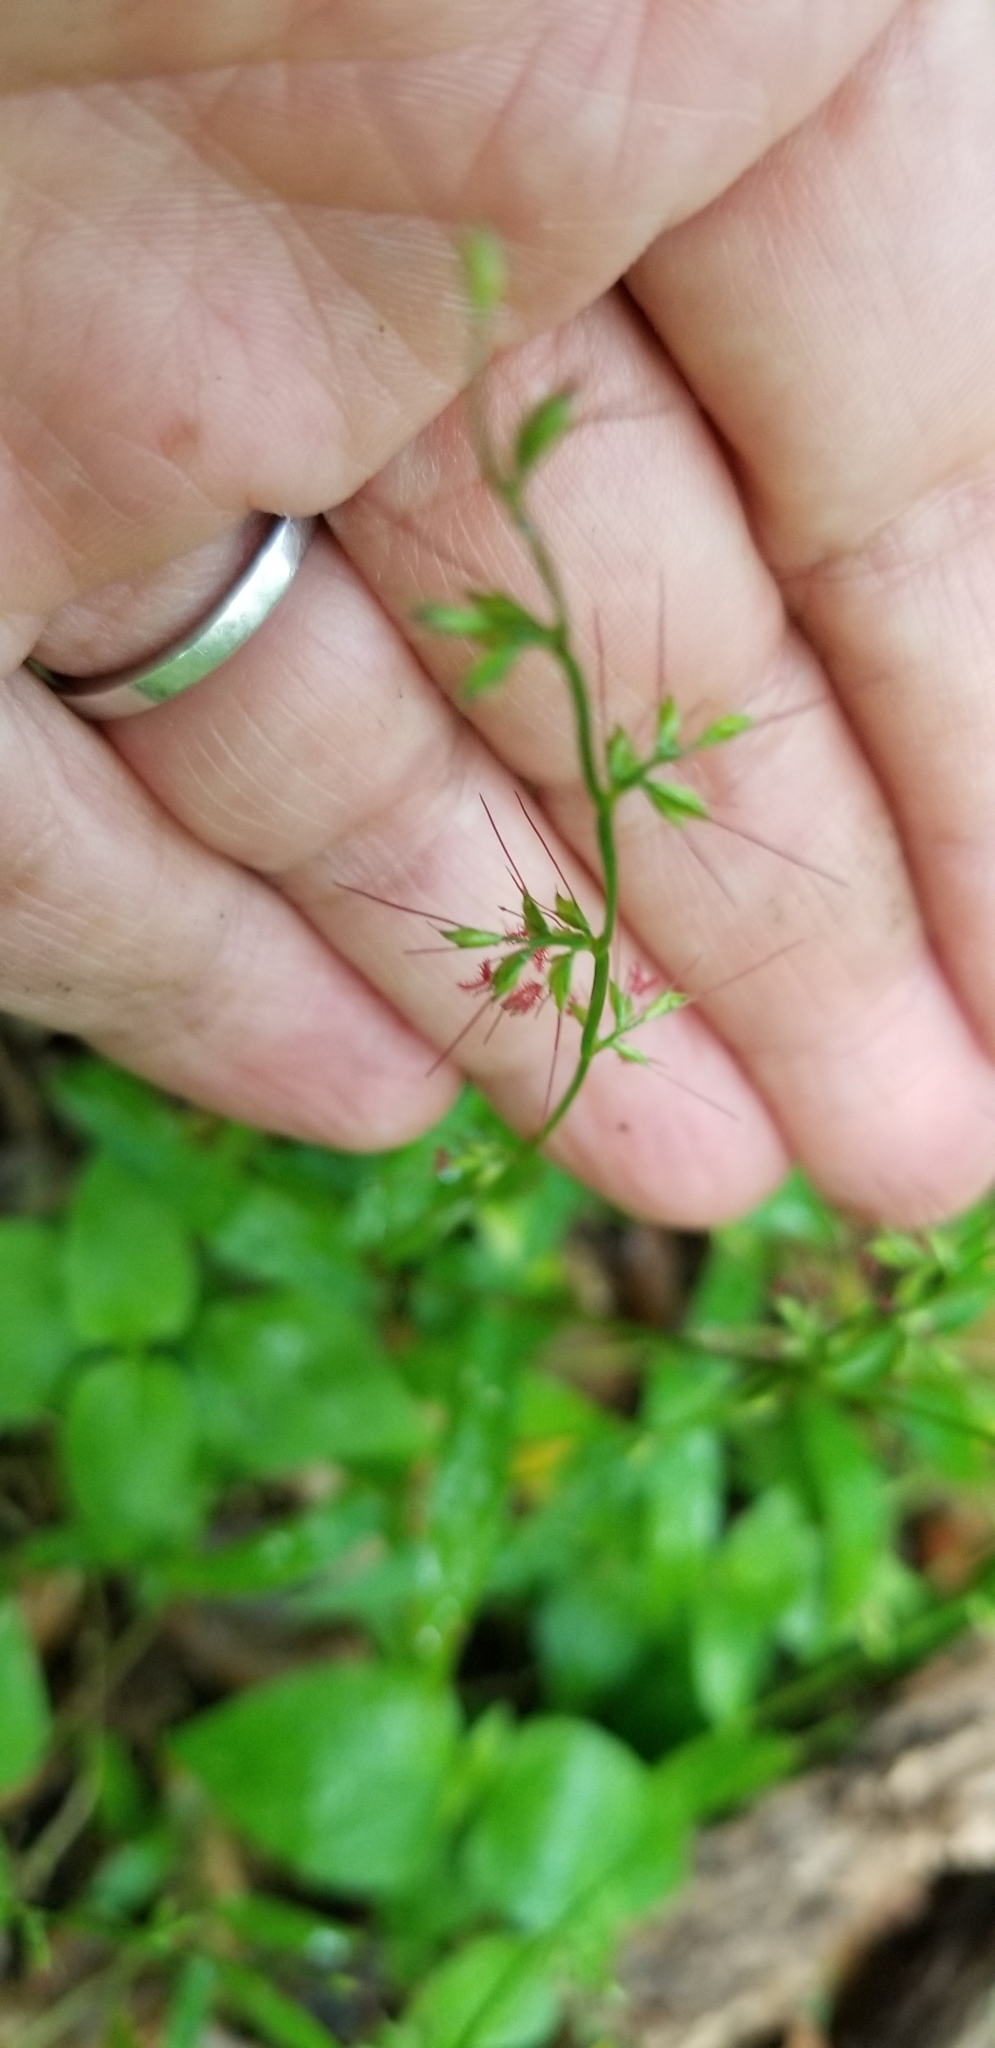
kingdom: Plantae
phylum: Tracheophyta
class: Liliopsida
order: Poales
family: Poaceae
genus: Oplismenus
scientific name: Oplismenus hirtellus
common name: Basketgrass
